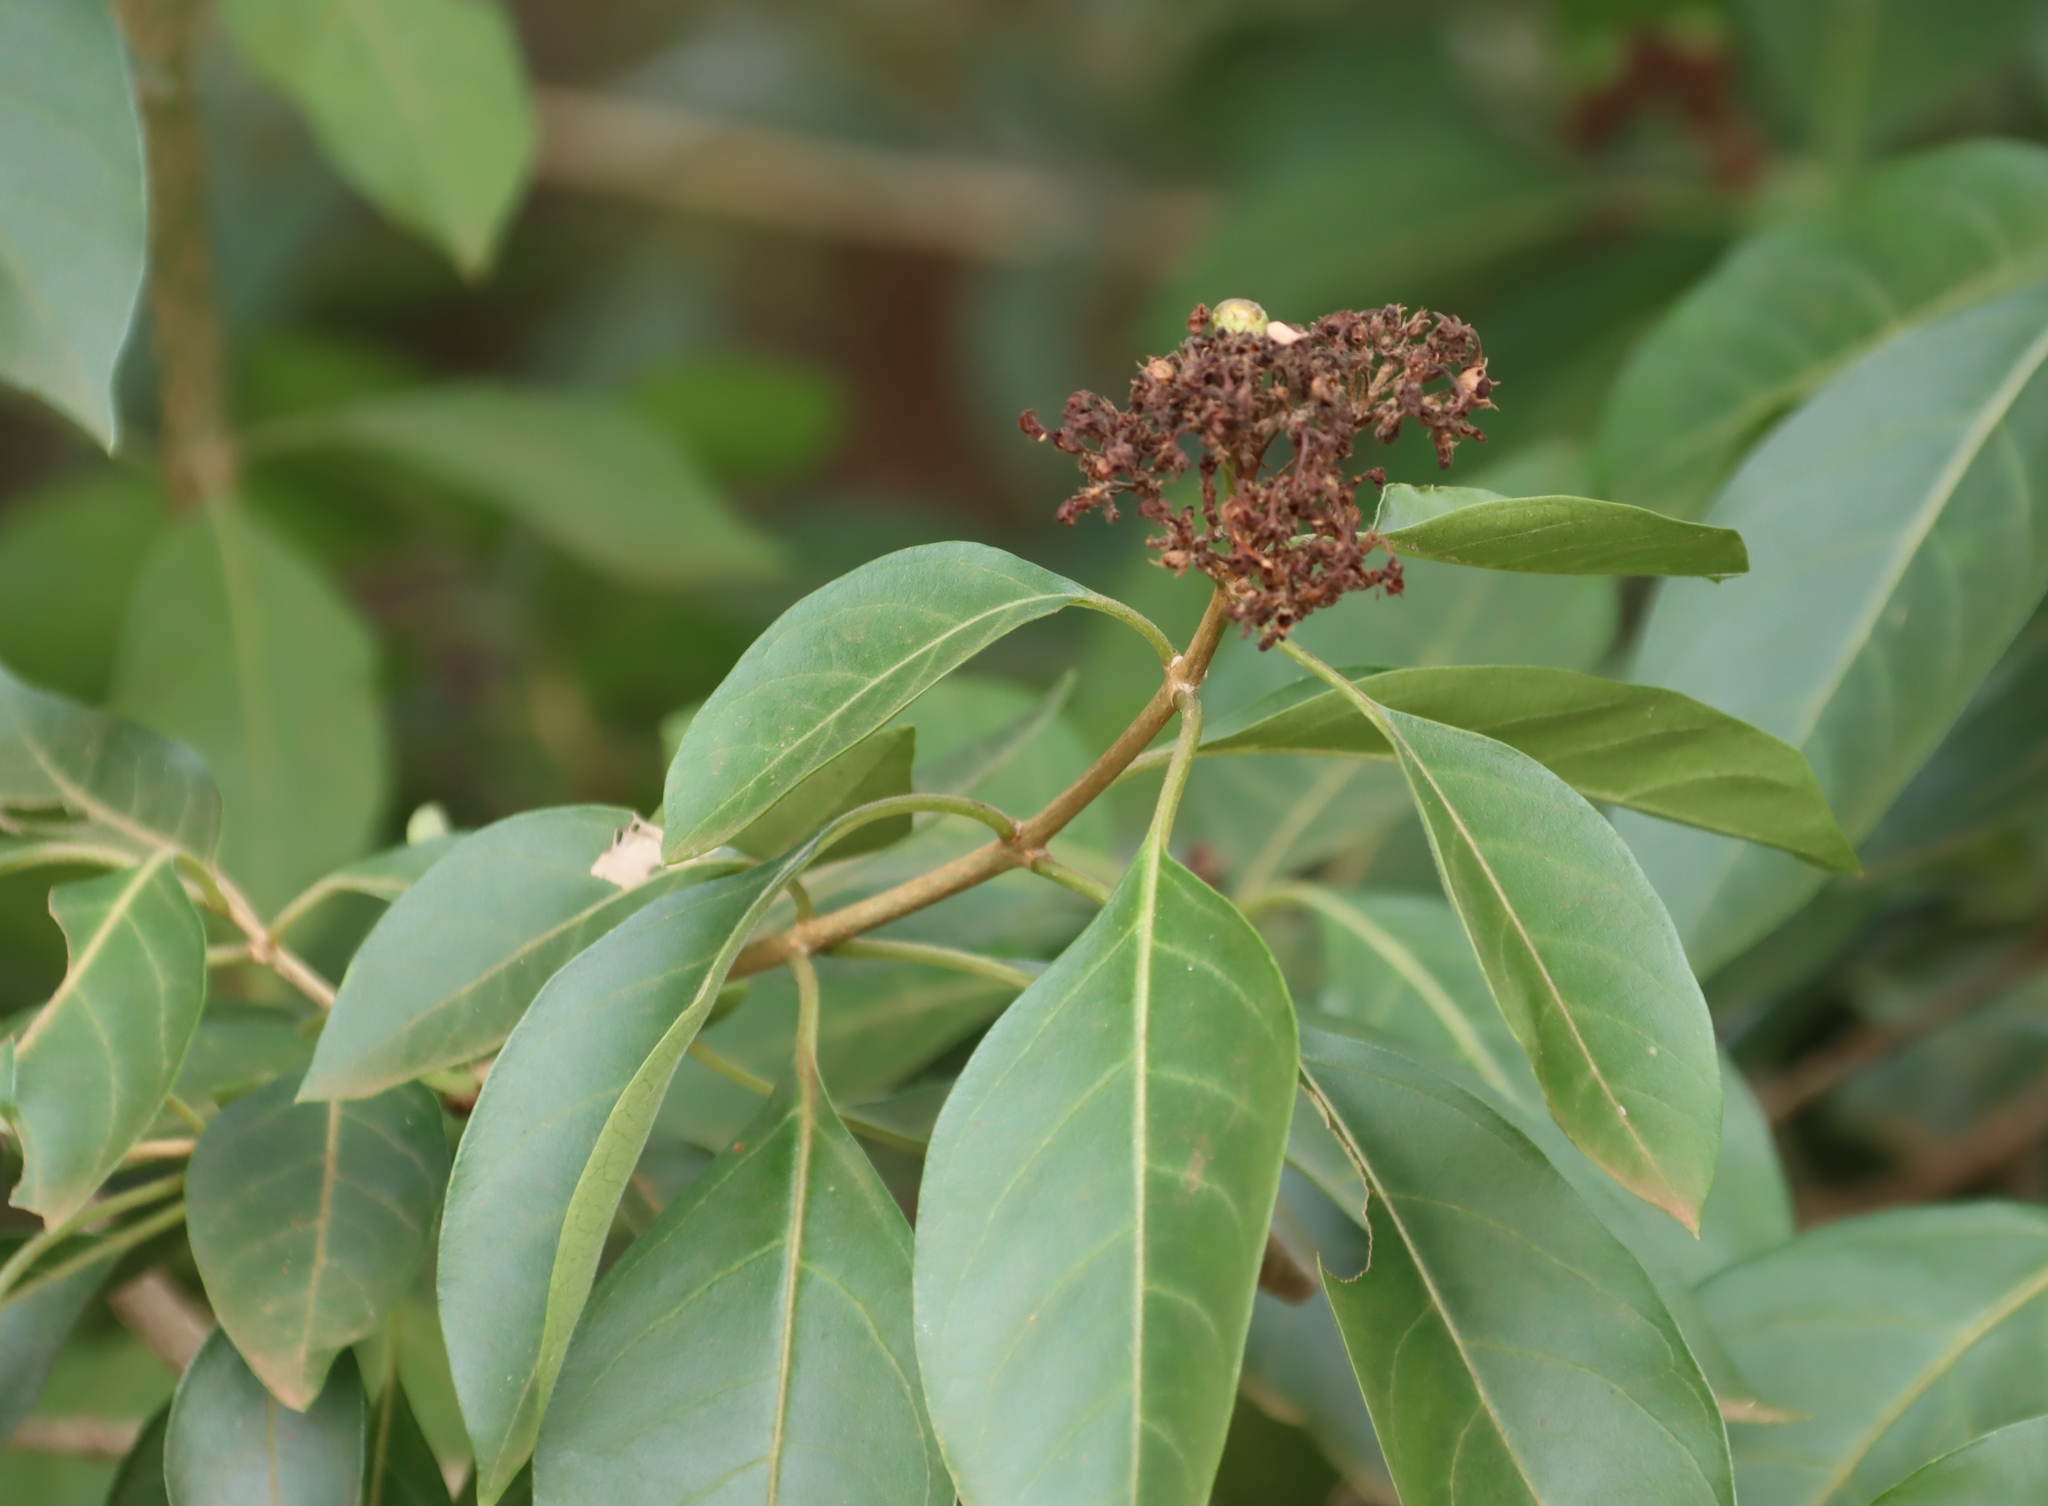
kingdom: Plantae
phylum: Tracheophyta
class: Magnoliopsida
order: Lamiales
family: Lamiaceae
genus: Volkameria
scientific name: Volkameria glabra
